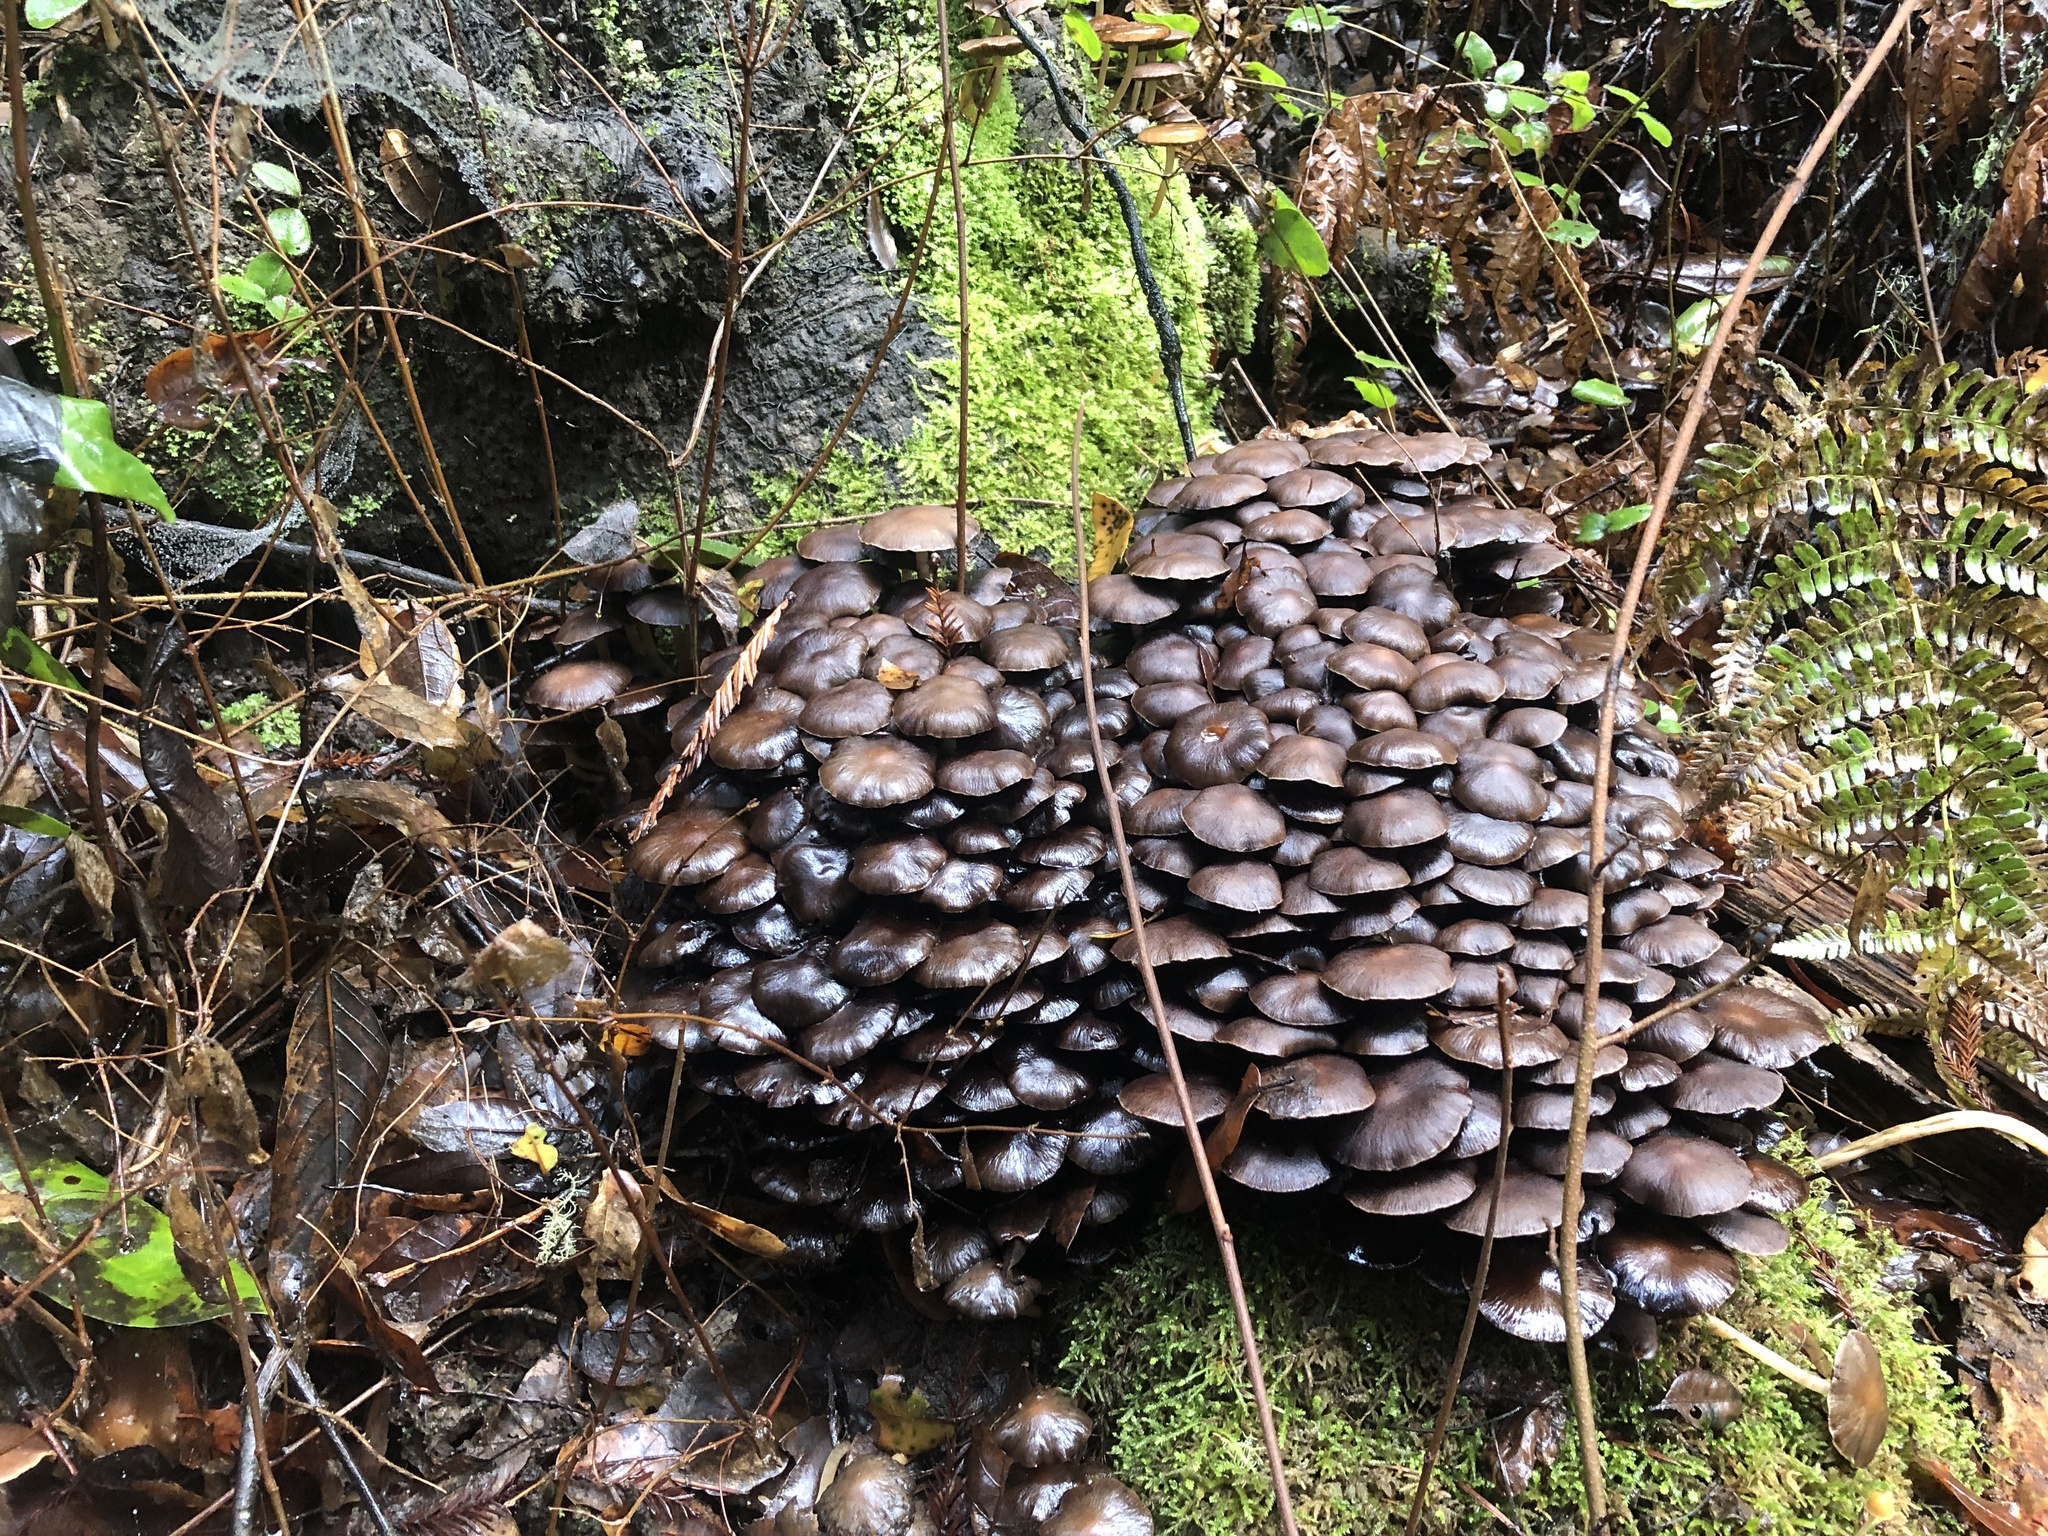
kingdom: Fungi
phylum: Basidiomycota
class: Agaricomycetes
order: Agaricales
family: Psathyrellaceae
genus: Psathyrella
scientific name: Psathyrella piluliformis
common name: Common stump brittlestem
